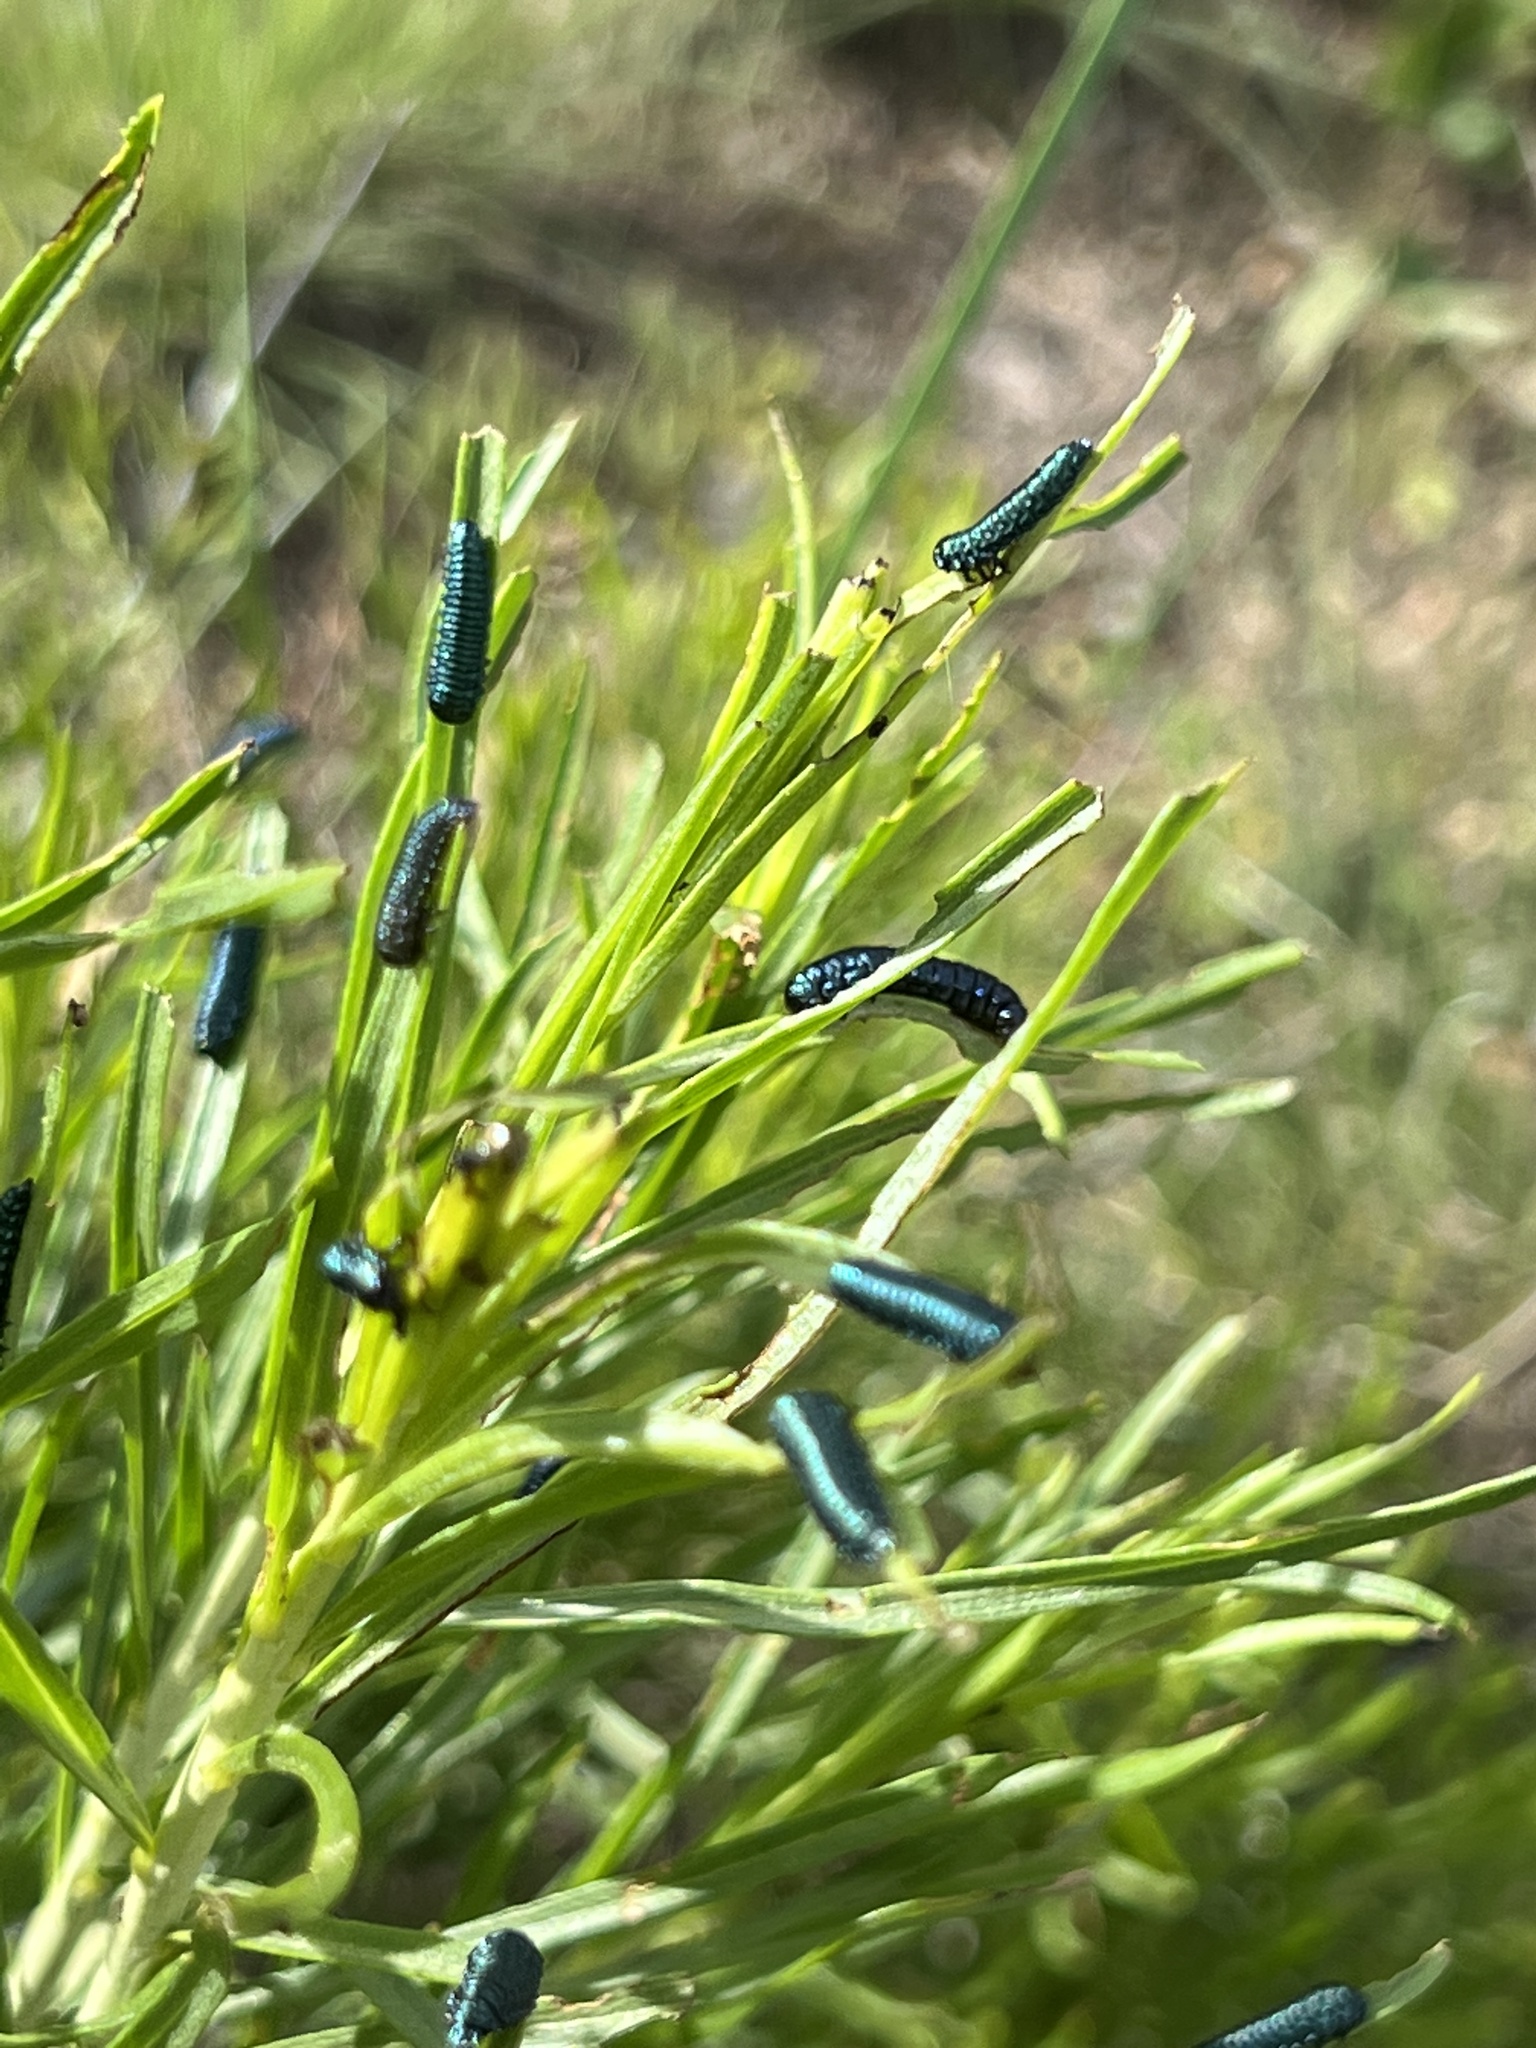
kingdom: Animalia
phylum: Arthropoda
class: Insecta
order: Coleoptera
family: Chrysomelidae
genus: Trirhabda
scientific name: Trirhabda nitidicollis
